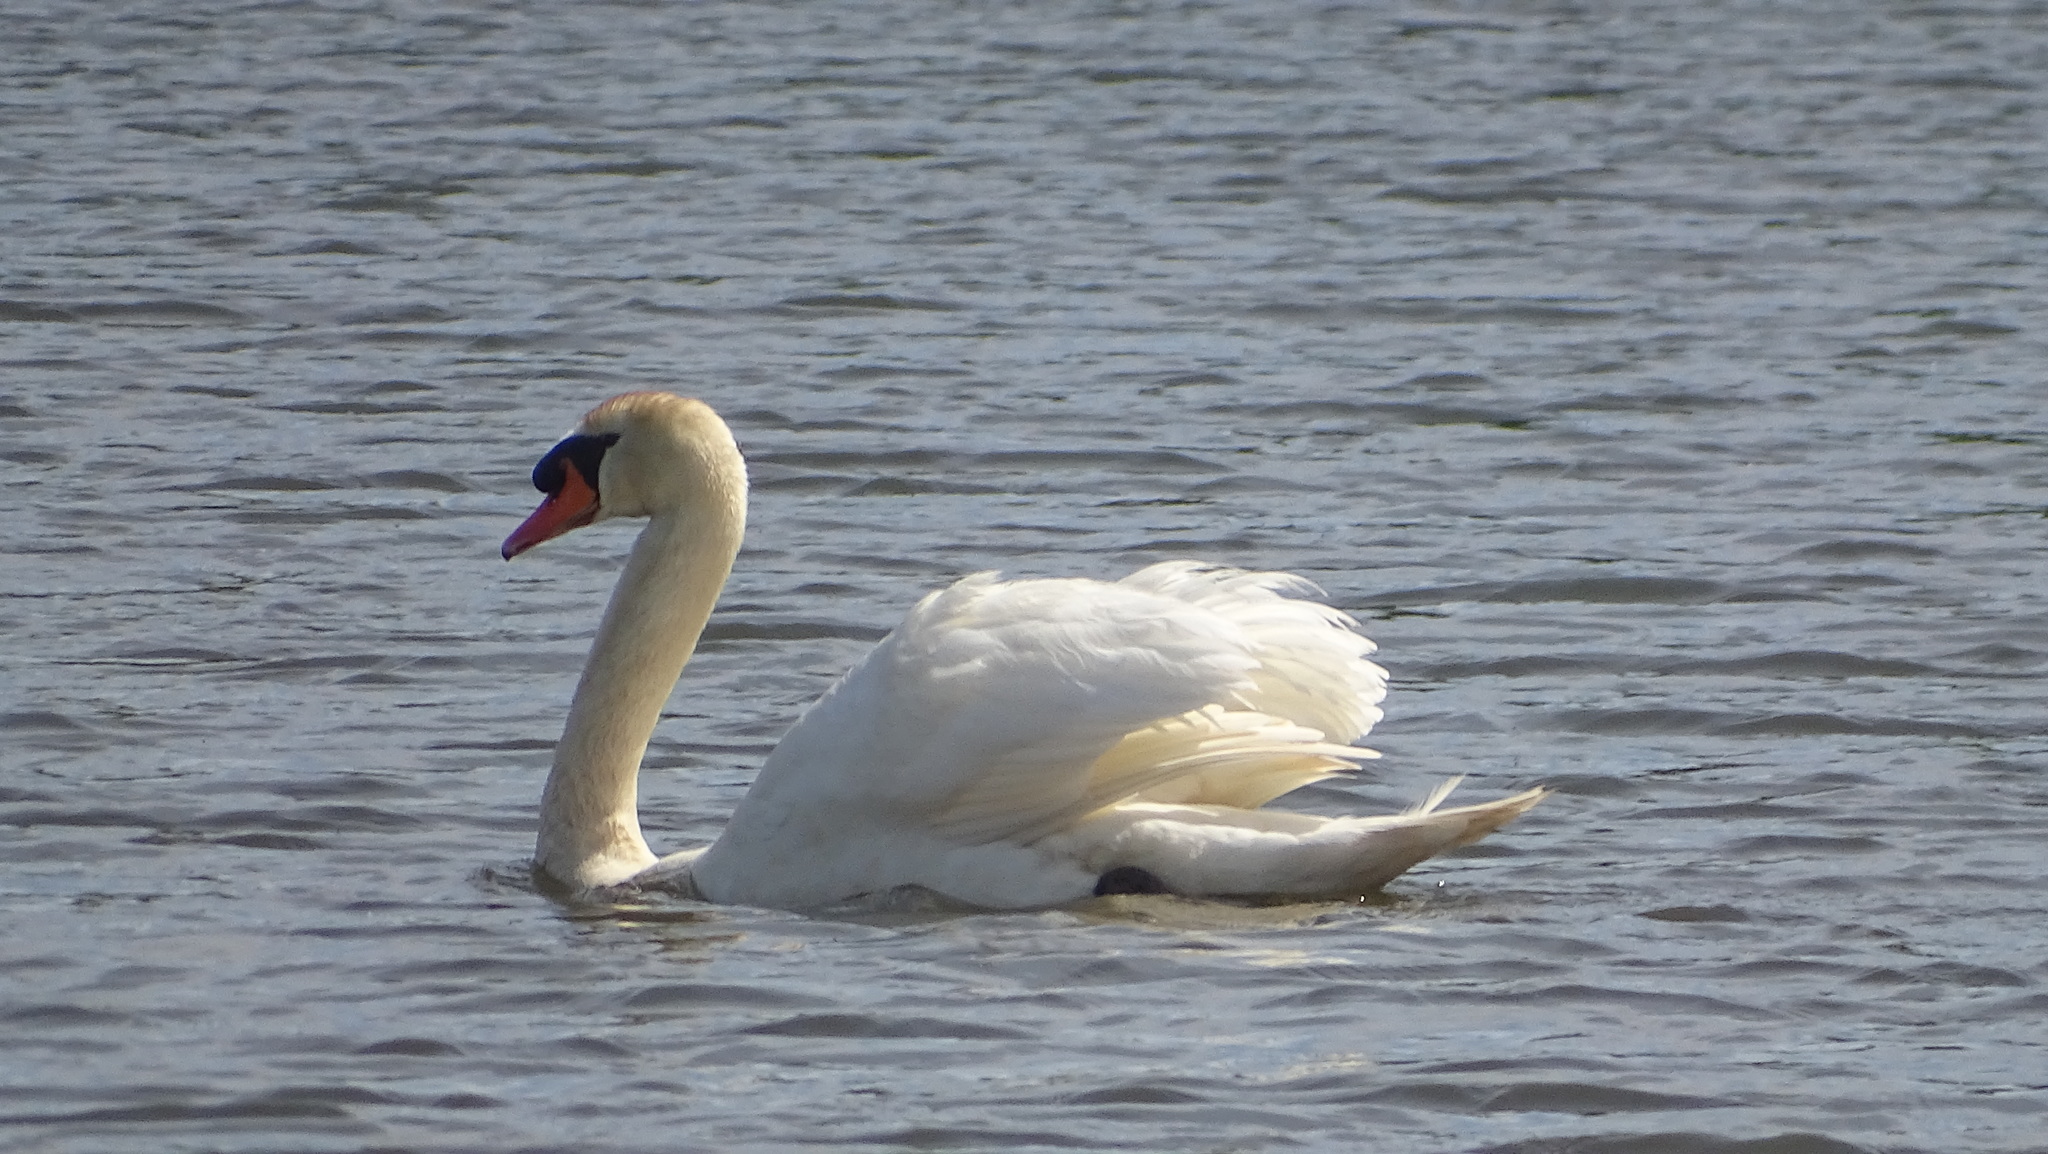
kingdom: Animalia
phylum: Chordata
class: Aves
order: Anseriformes
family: Anatidae
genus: Cygnus
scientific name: Cygnus olor
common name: Mute swan
